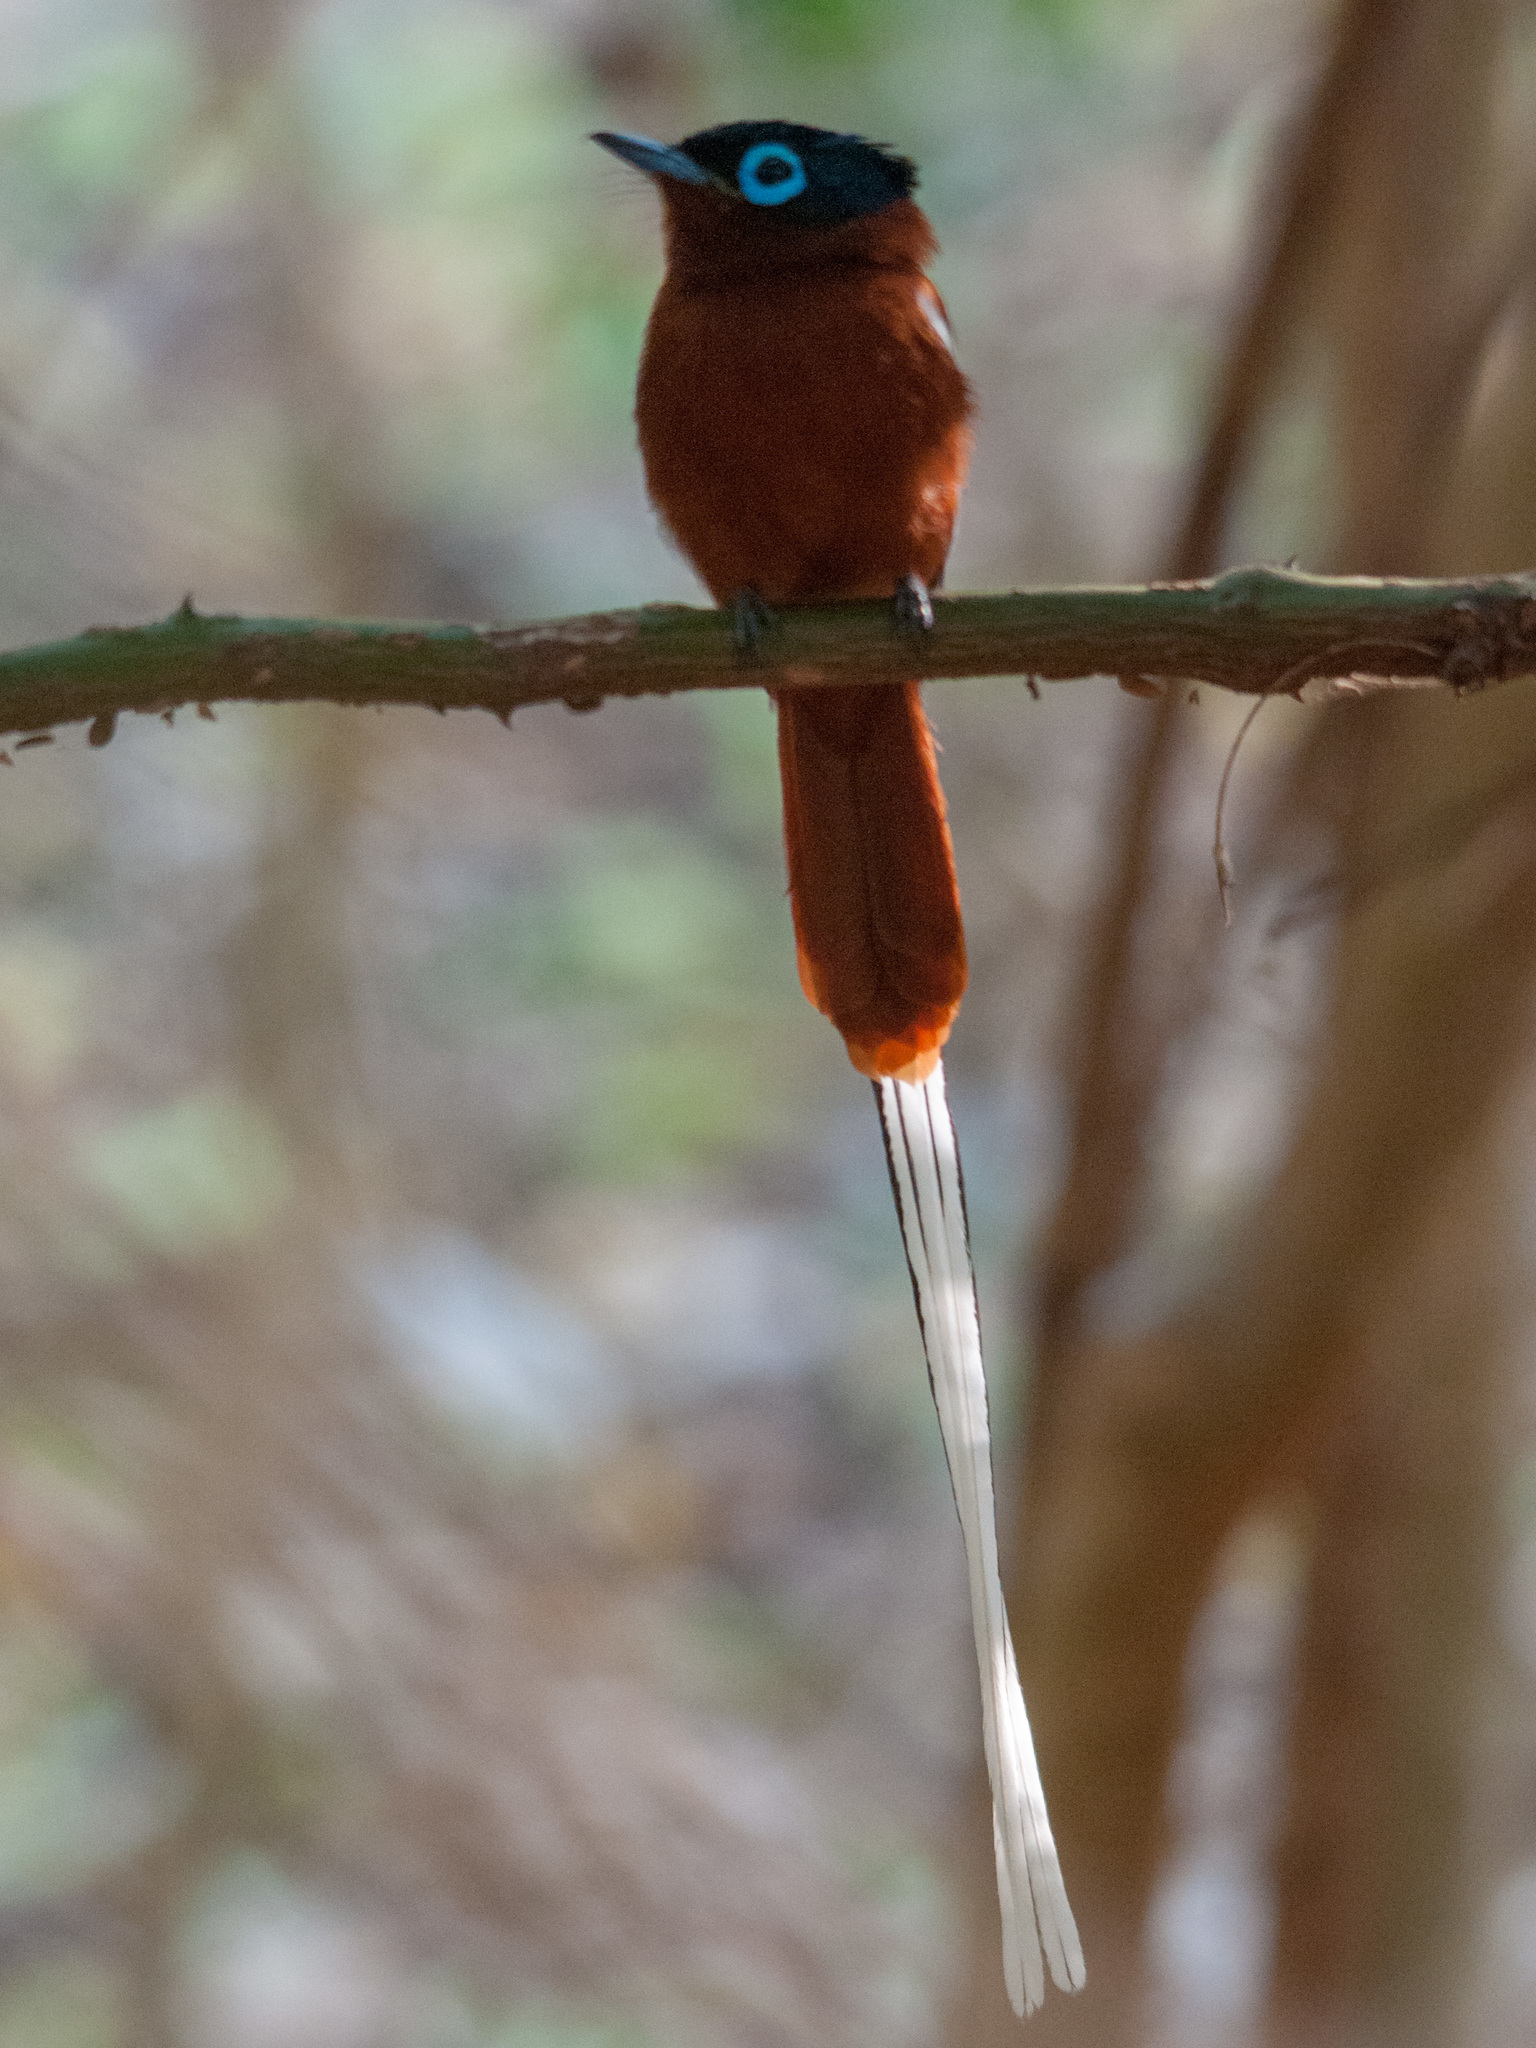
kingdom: Animalia
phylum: Chordata
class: Aves
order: Passeriformes
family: Monarchidae
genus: Terpsiphone
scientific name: Terpsiphone mutata
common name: Malagasy paradise flycatcher
